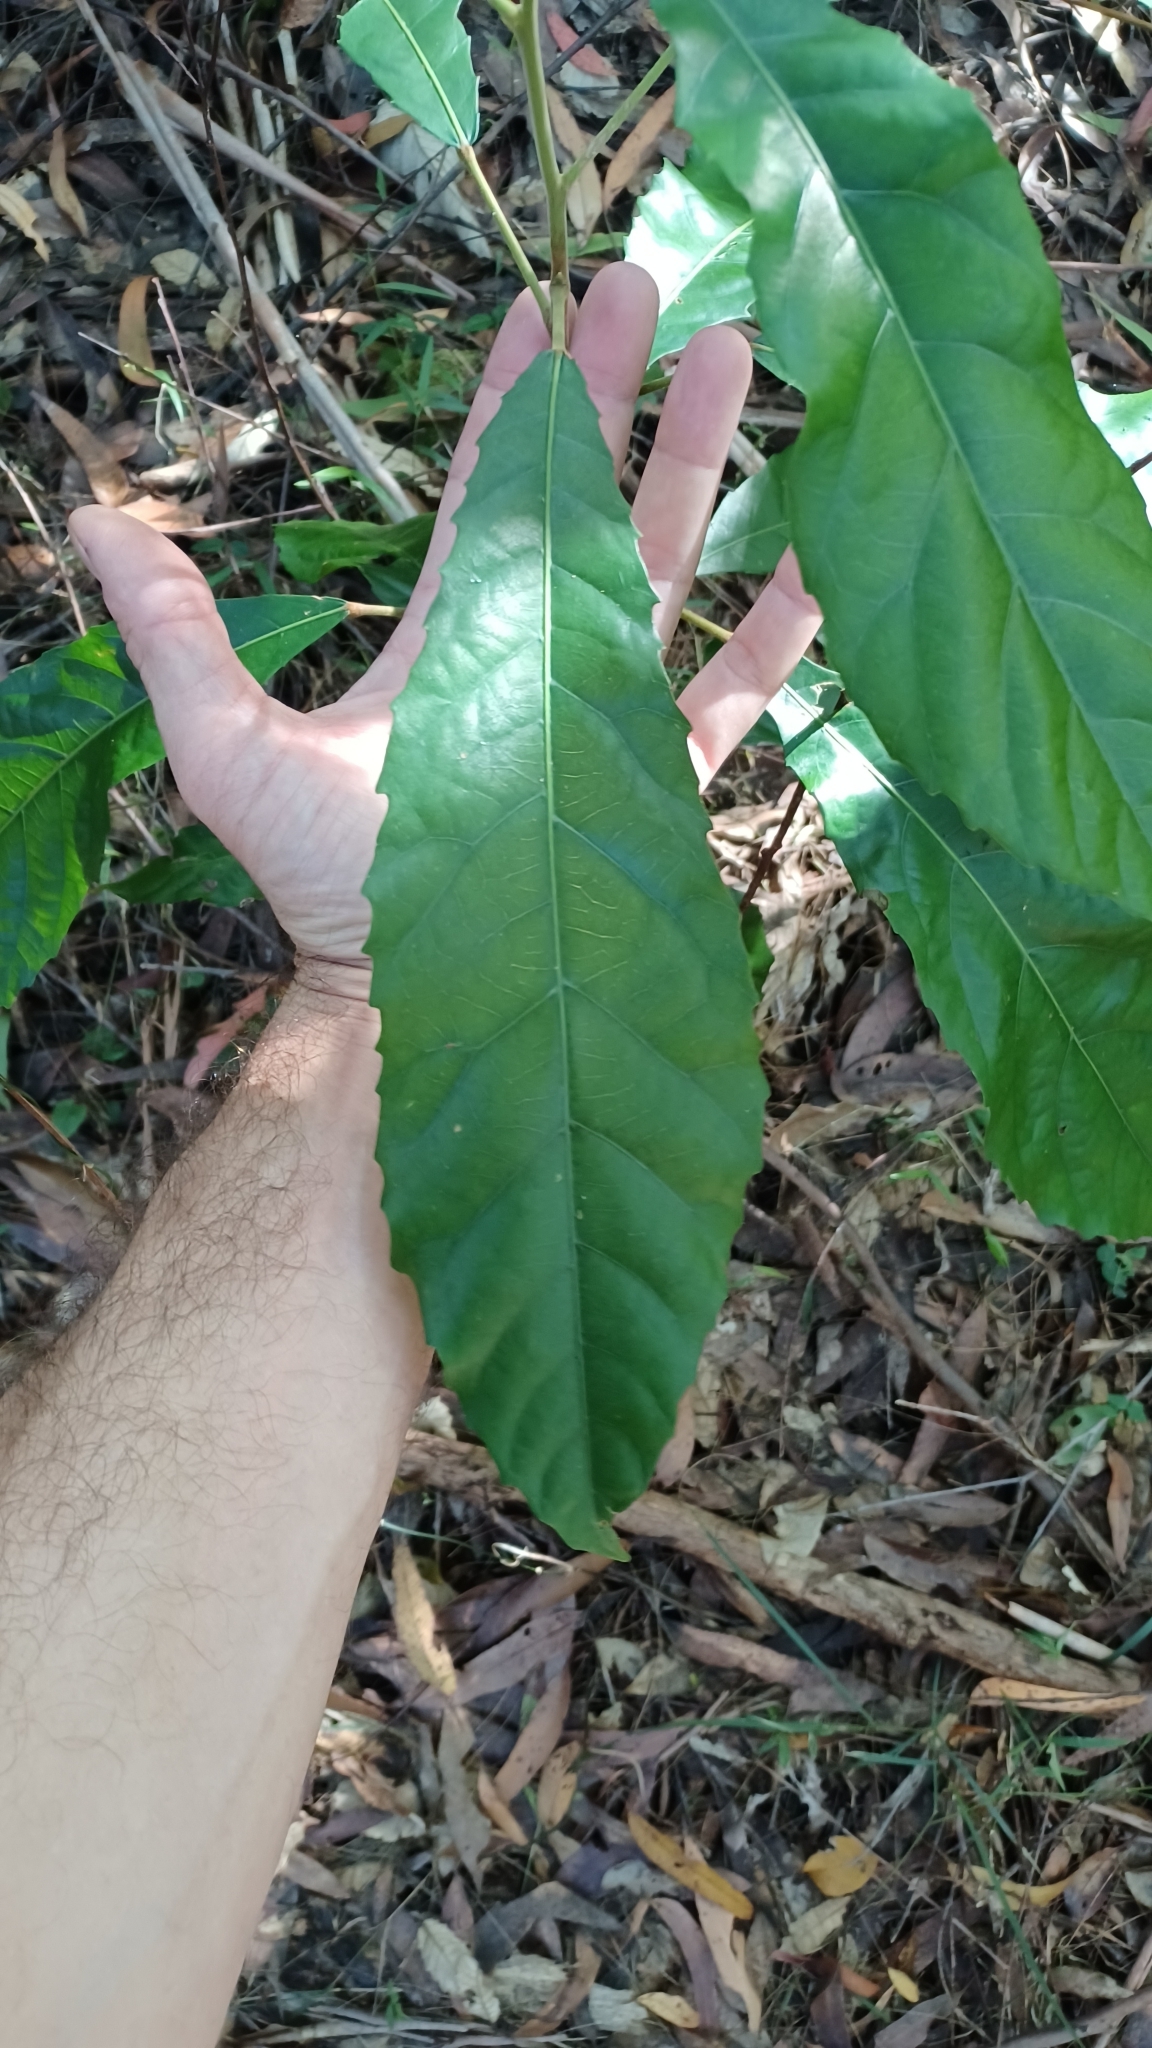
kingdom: Plantae
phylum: Tracheophyta
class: Magnoliopsida
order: Oxalidales
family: Elaeocarpaceae
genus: Sloanea
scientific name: Sloanea woollsii
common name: Yellow carabeen
